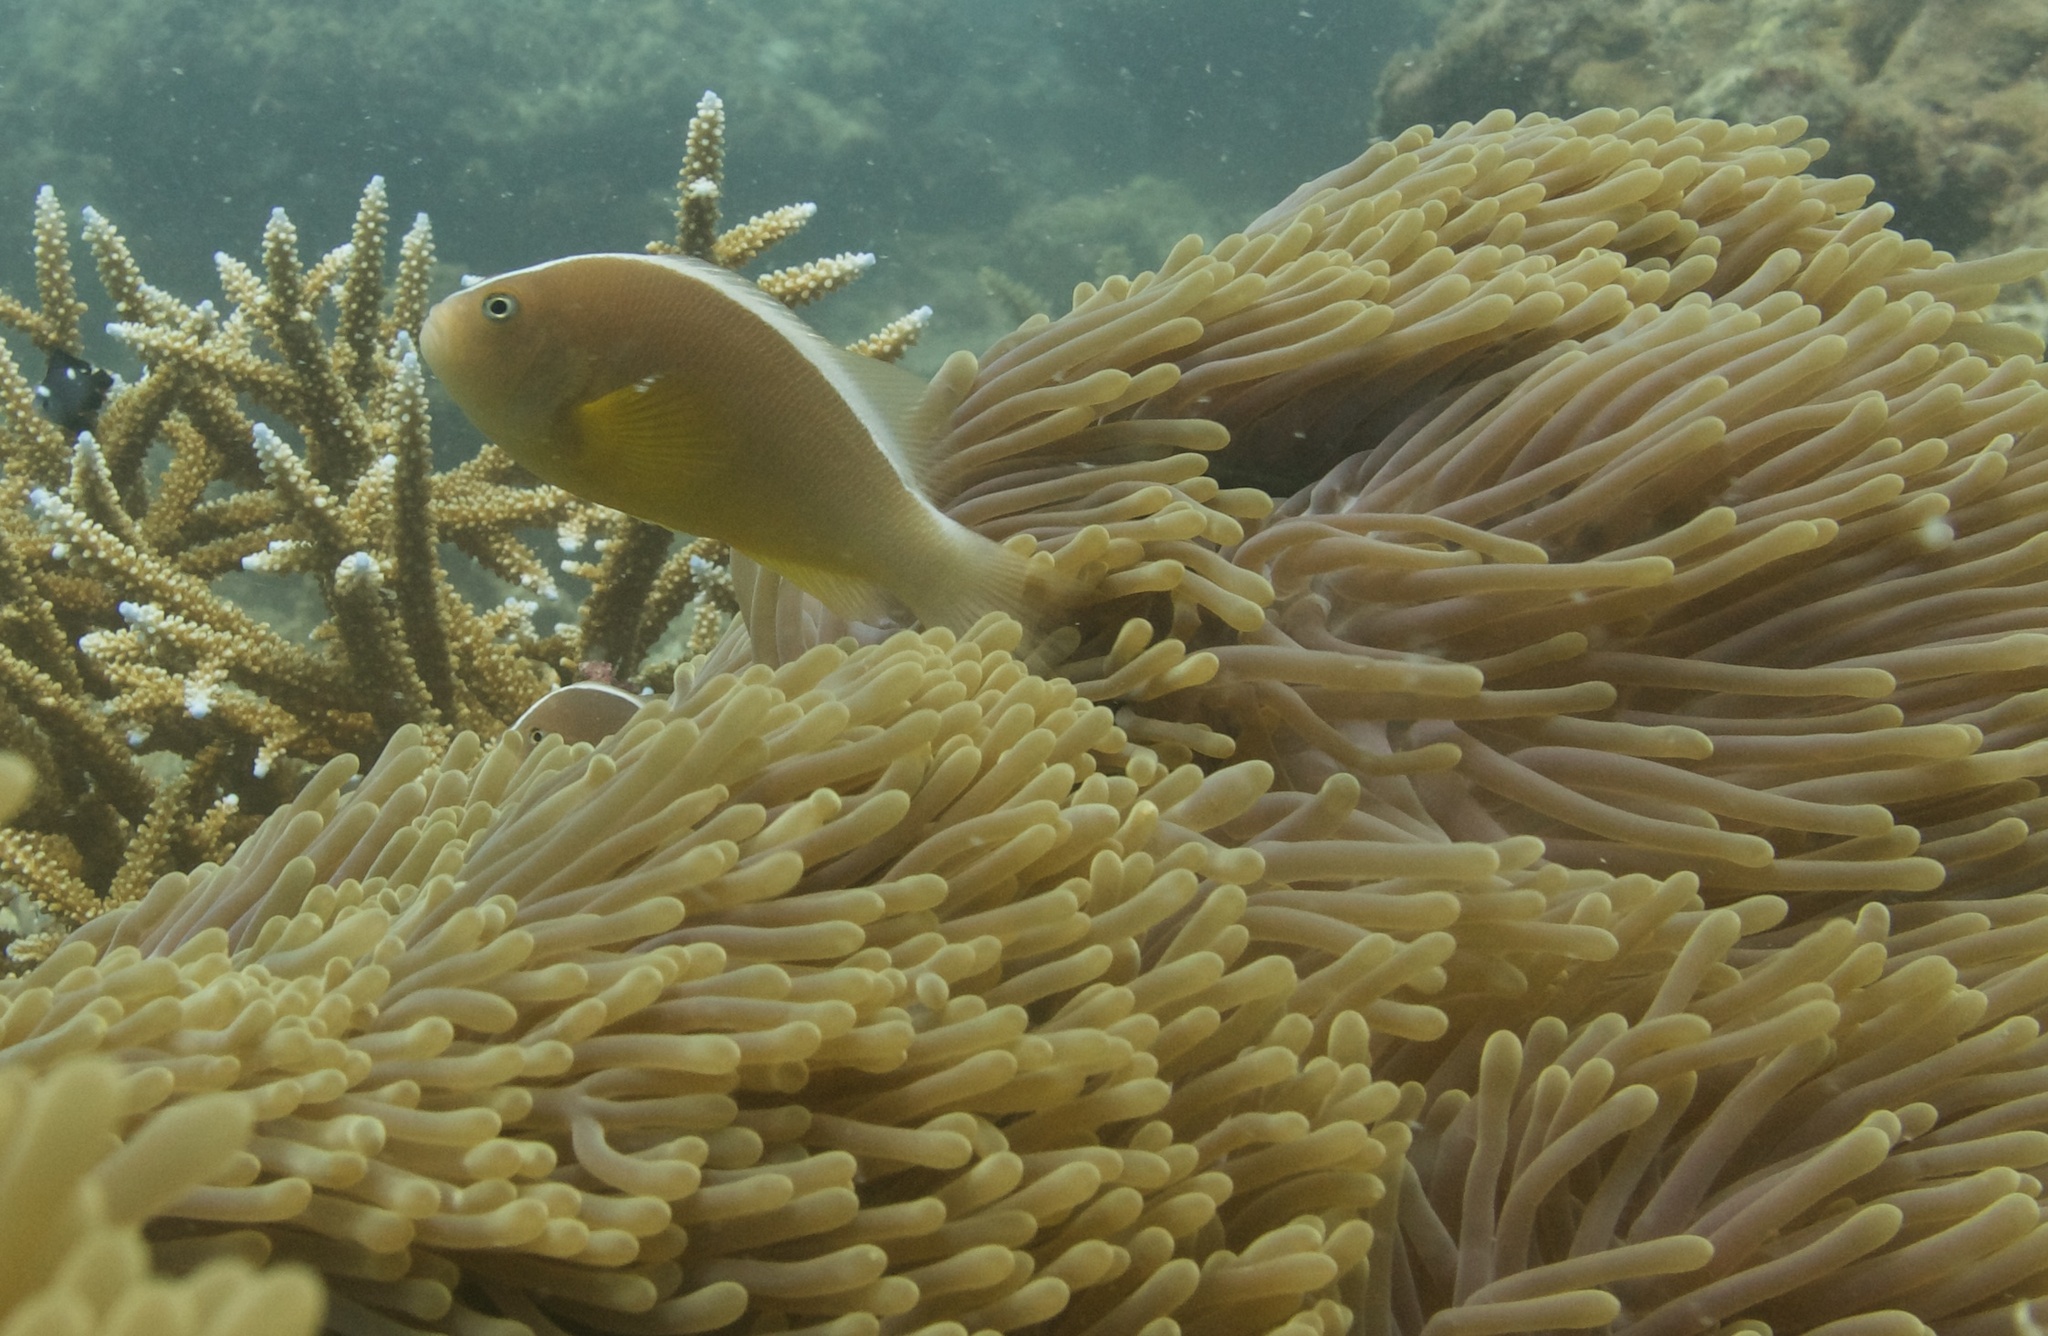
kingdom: Animalia
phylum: Chordata
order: Perciformes
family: Pomacentridae
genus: Amphiprion
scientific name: Amphiprion akallopisos
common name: Skunk clownfish
